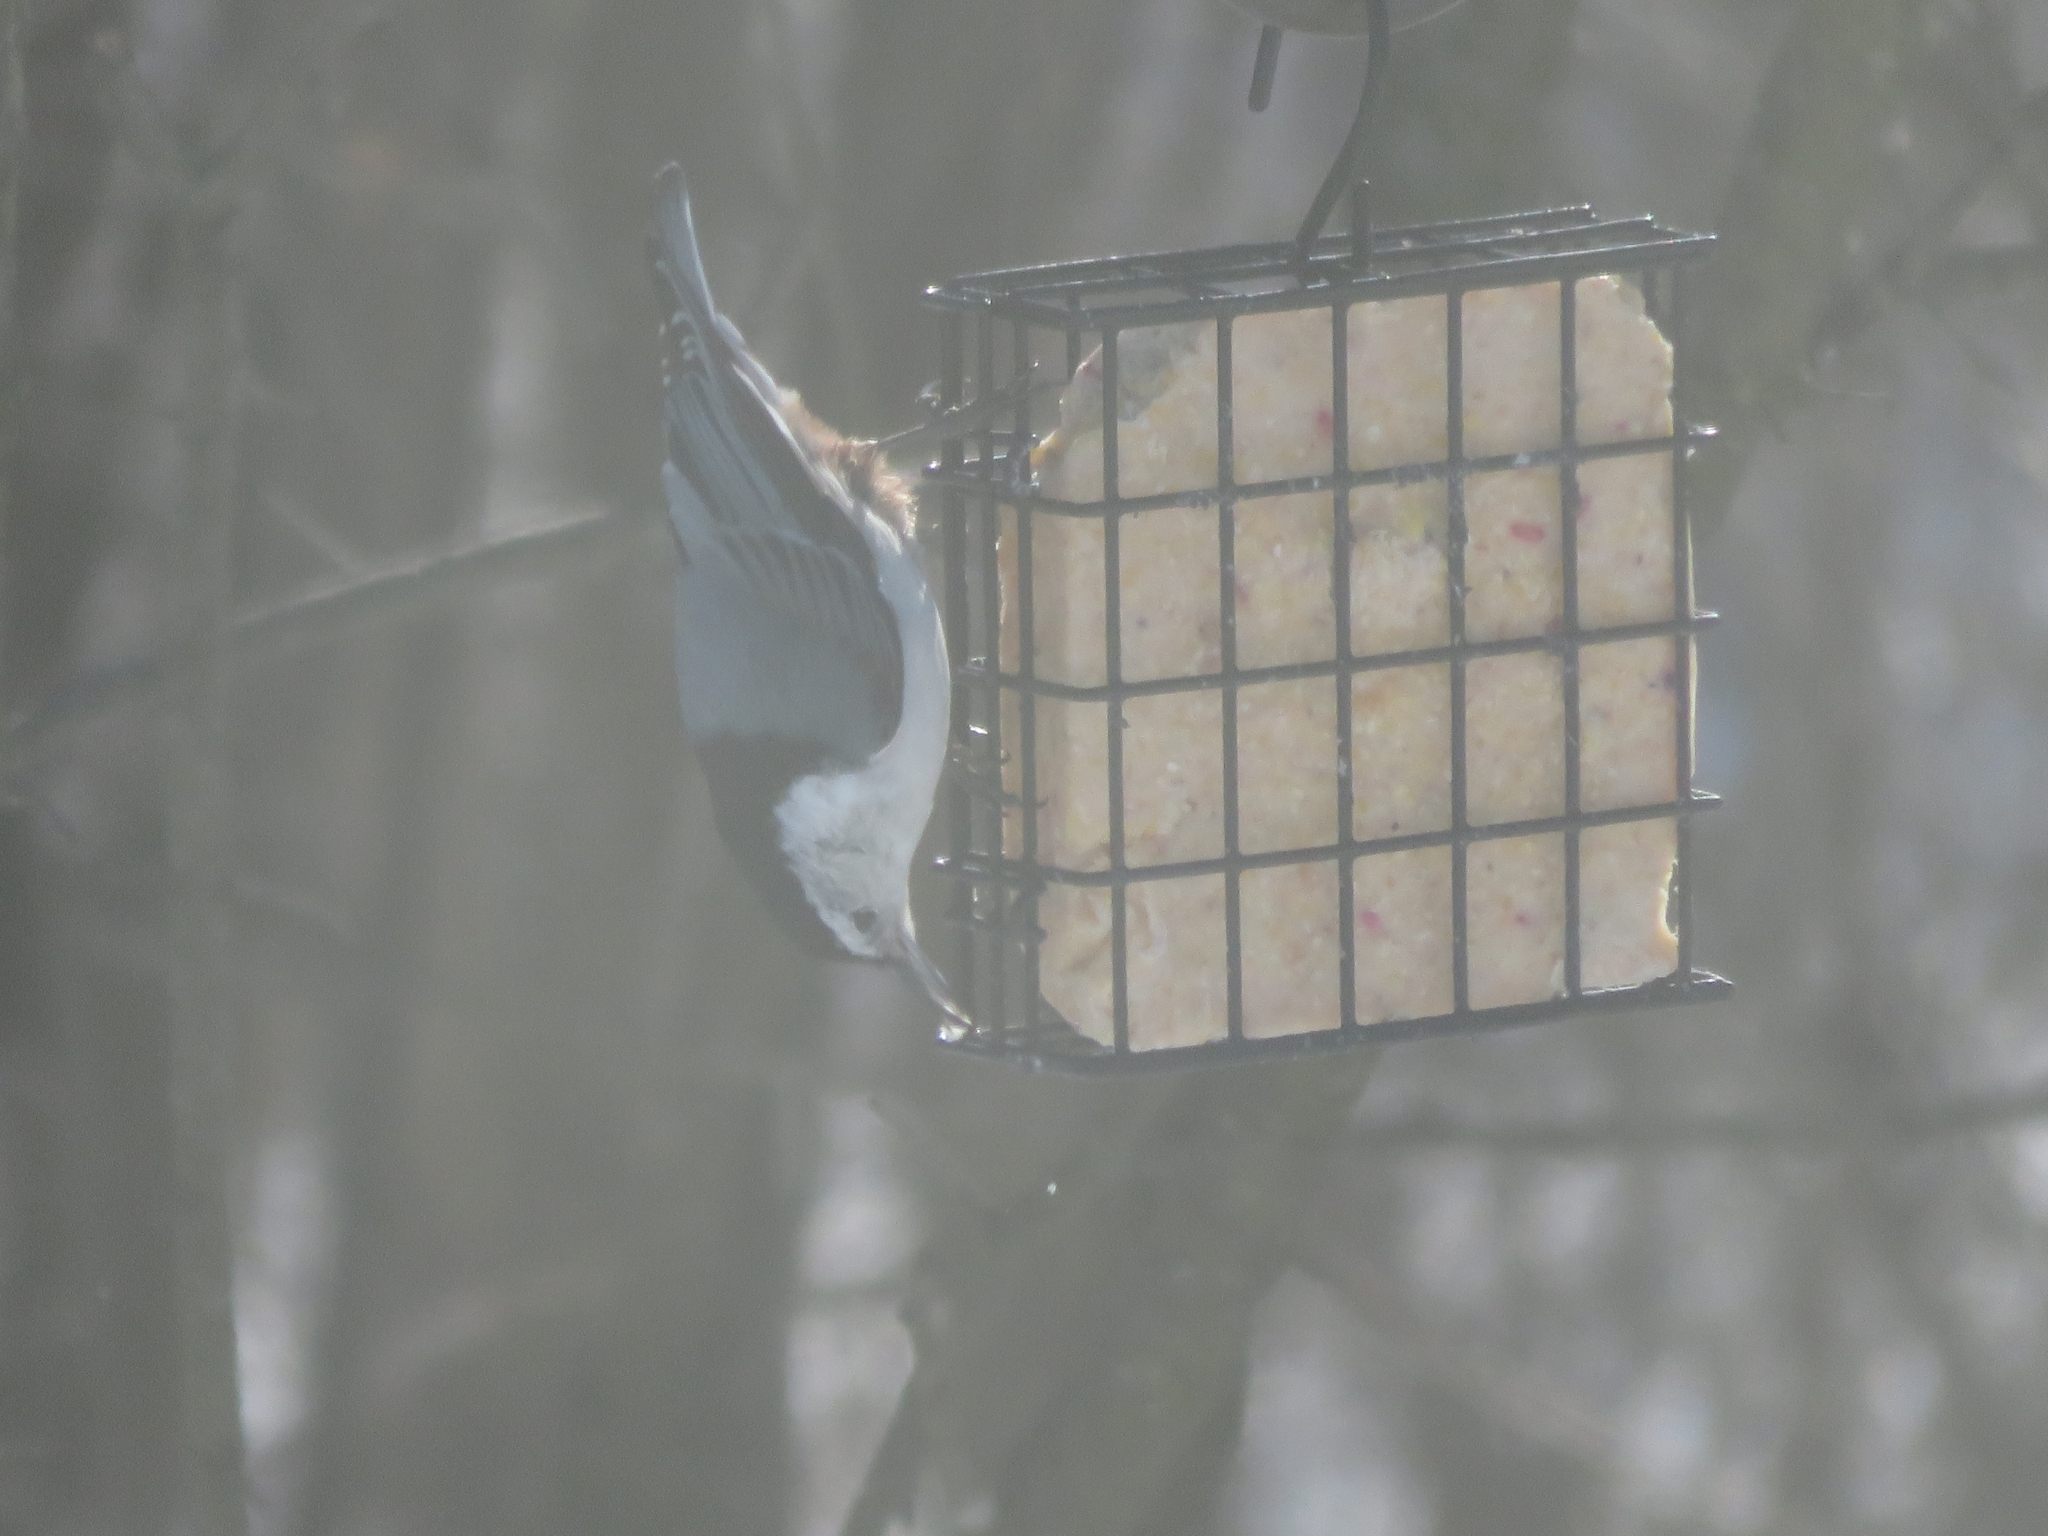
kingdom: Animalia
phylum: Chordata
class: Aves
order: Passeriformes
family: Sittidae
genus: Sitta
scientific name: Sitta carolinensis
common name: White-breasted nuthatch
